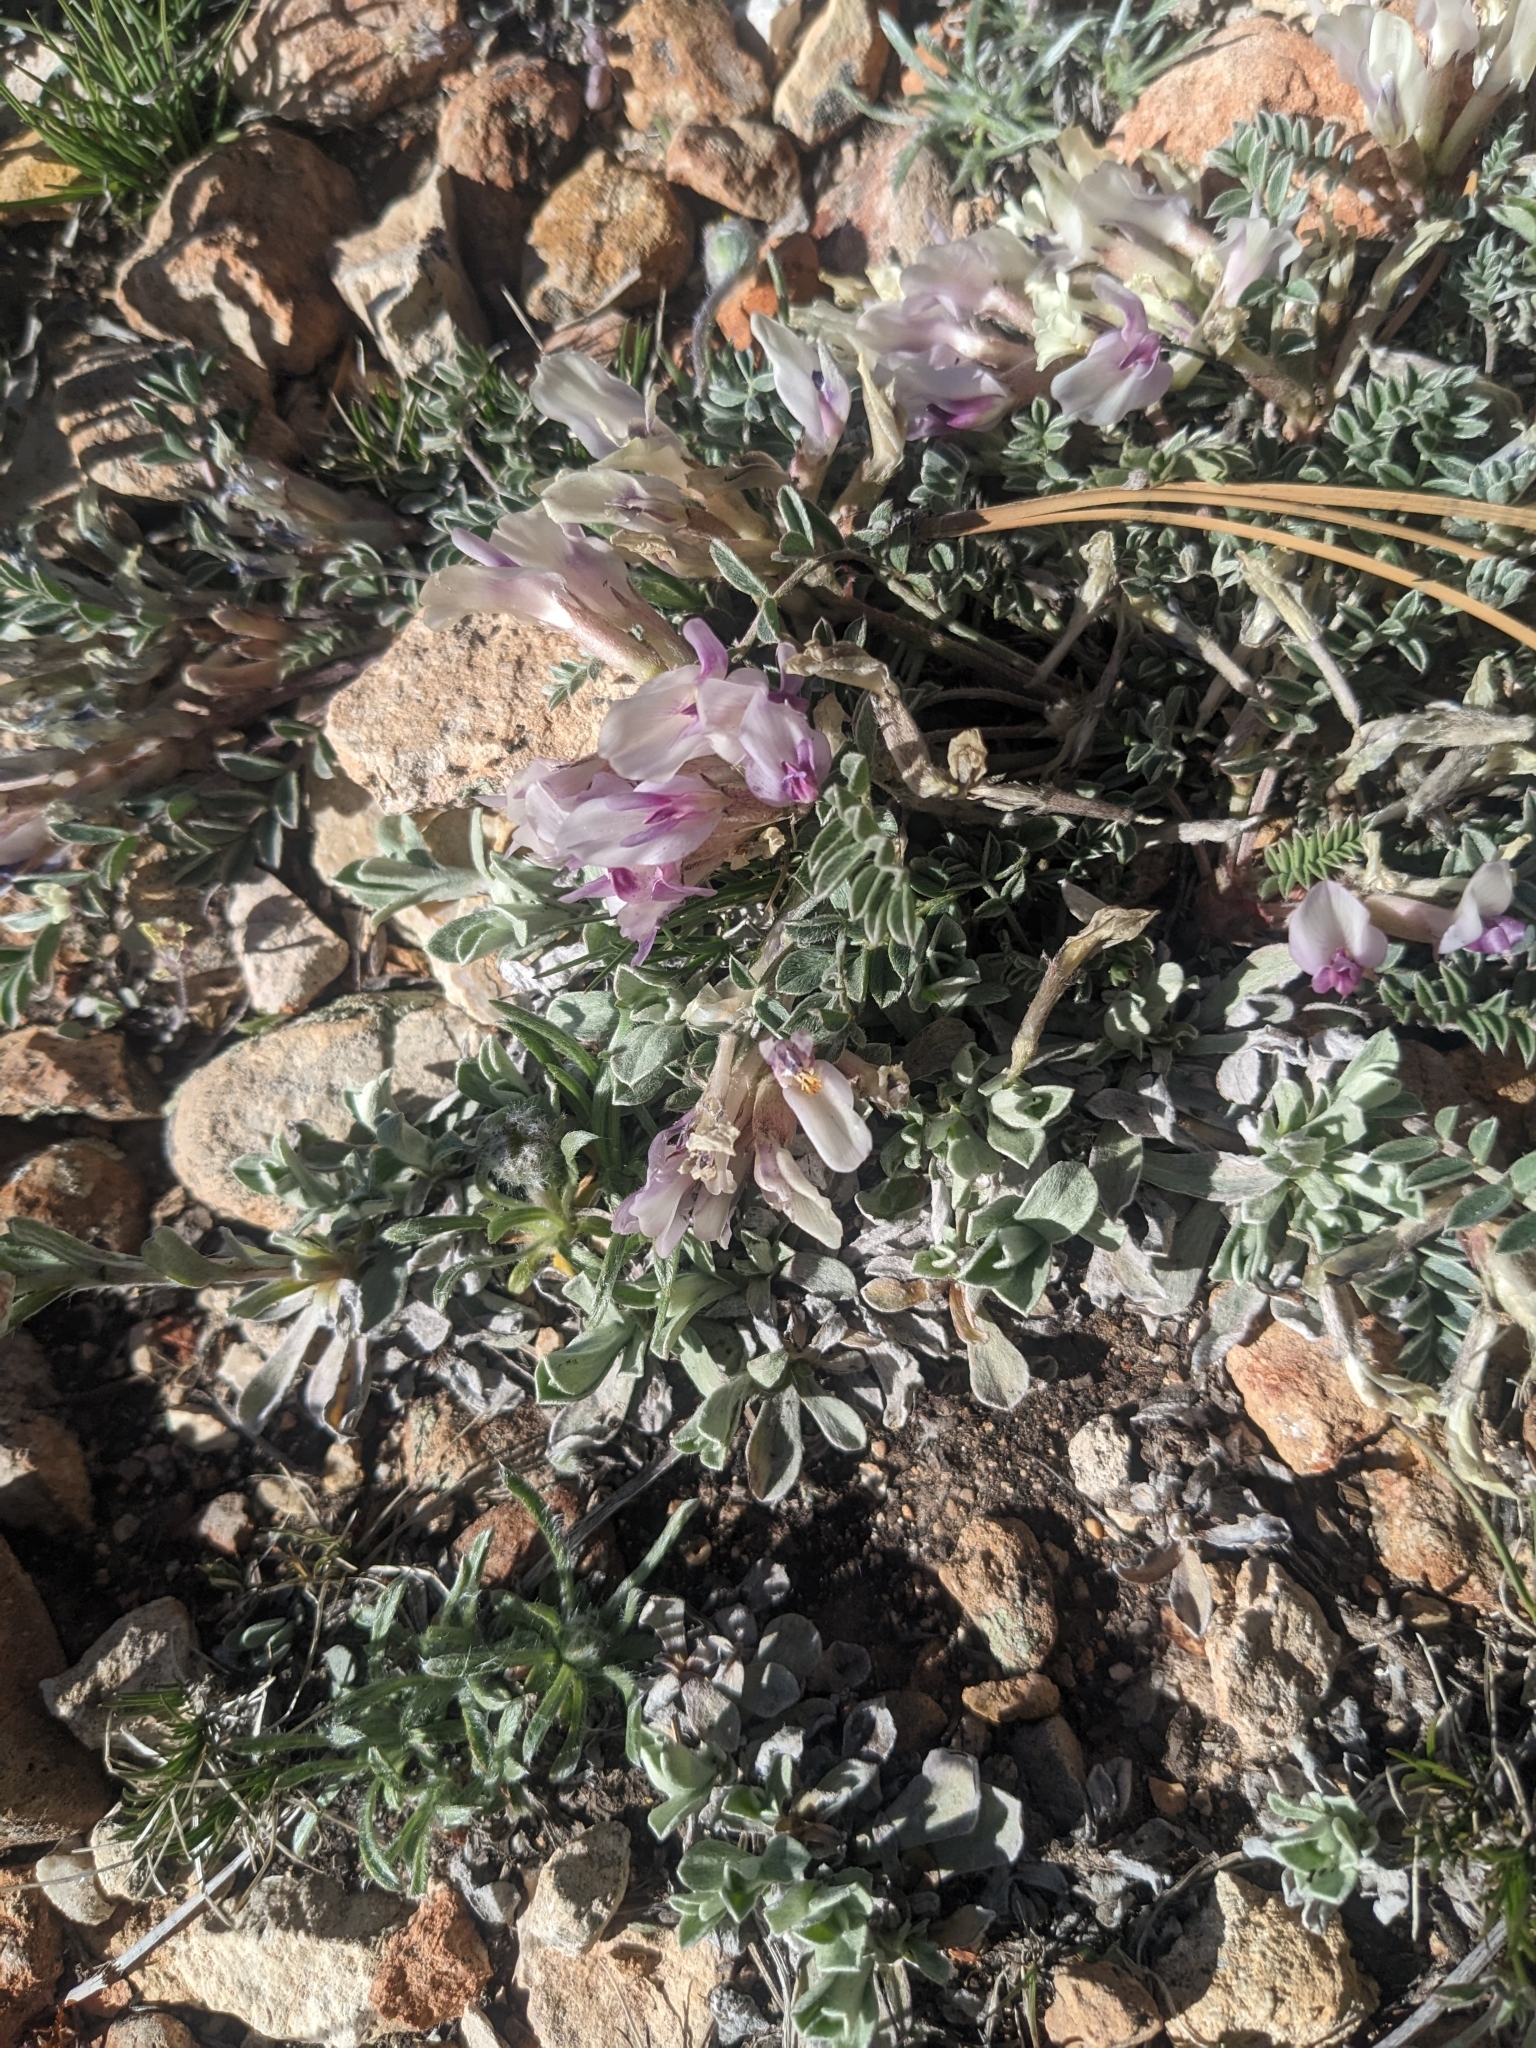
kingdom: Plantae
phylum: Tracheophyta
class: Magnoliopsida
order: Fabales
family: Fabaceae
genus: Astragalus
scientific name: Astragalus castaneiformis
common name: Chestnut milk-vetch
